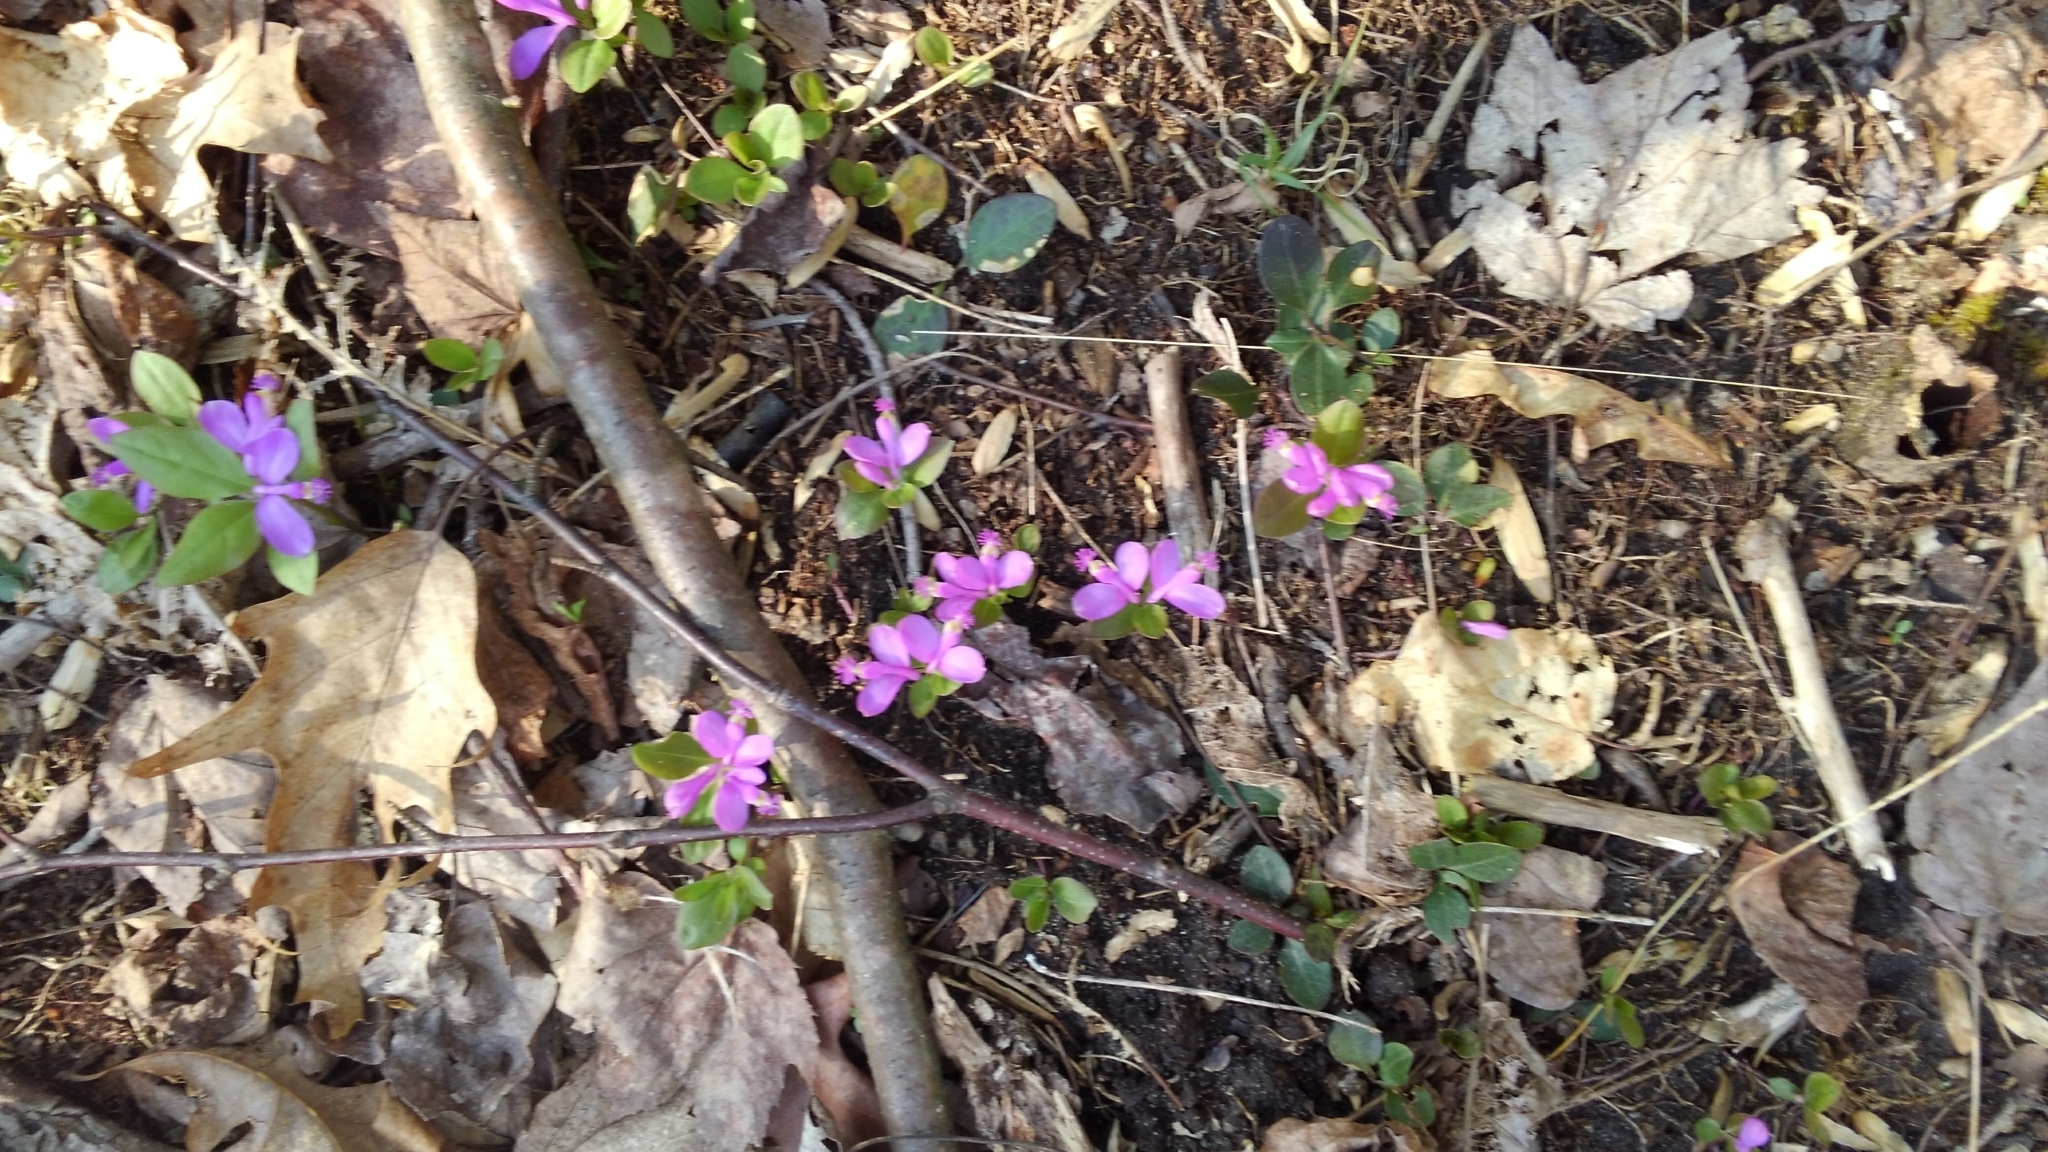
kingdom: Plantae
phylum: Tracheophyta
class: Magnoliopsida
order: Fabales
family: Polygalaceae
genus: Polygaloides
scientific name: Polygaloides paucifolia
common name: Bird-on-the-wing
